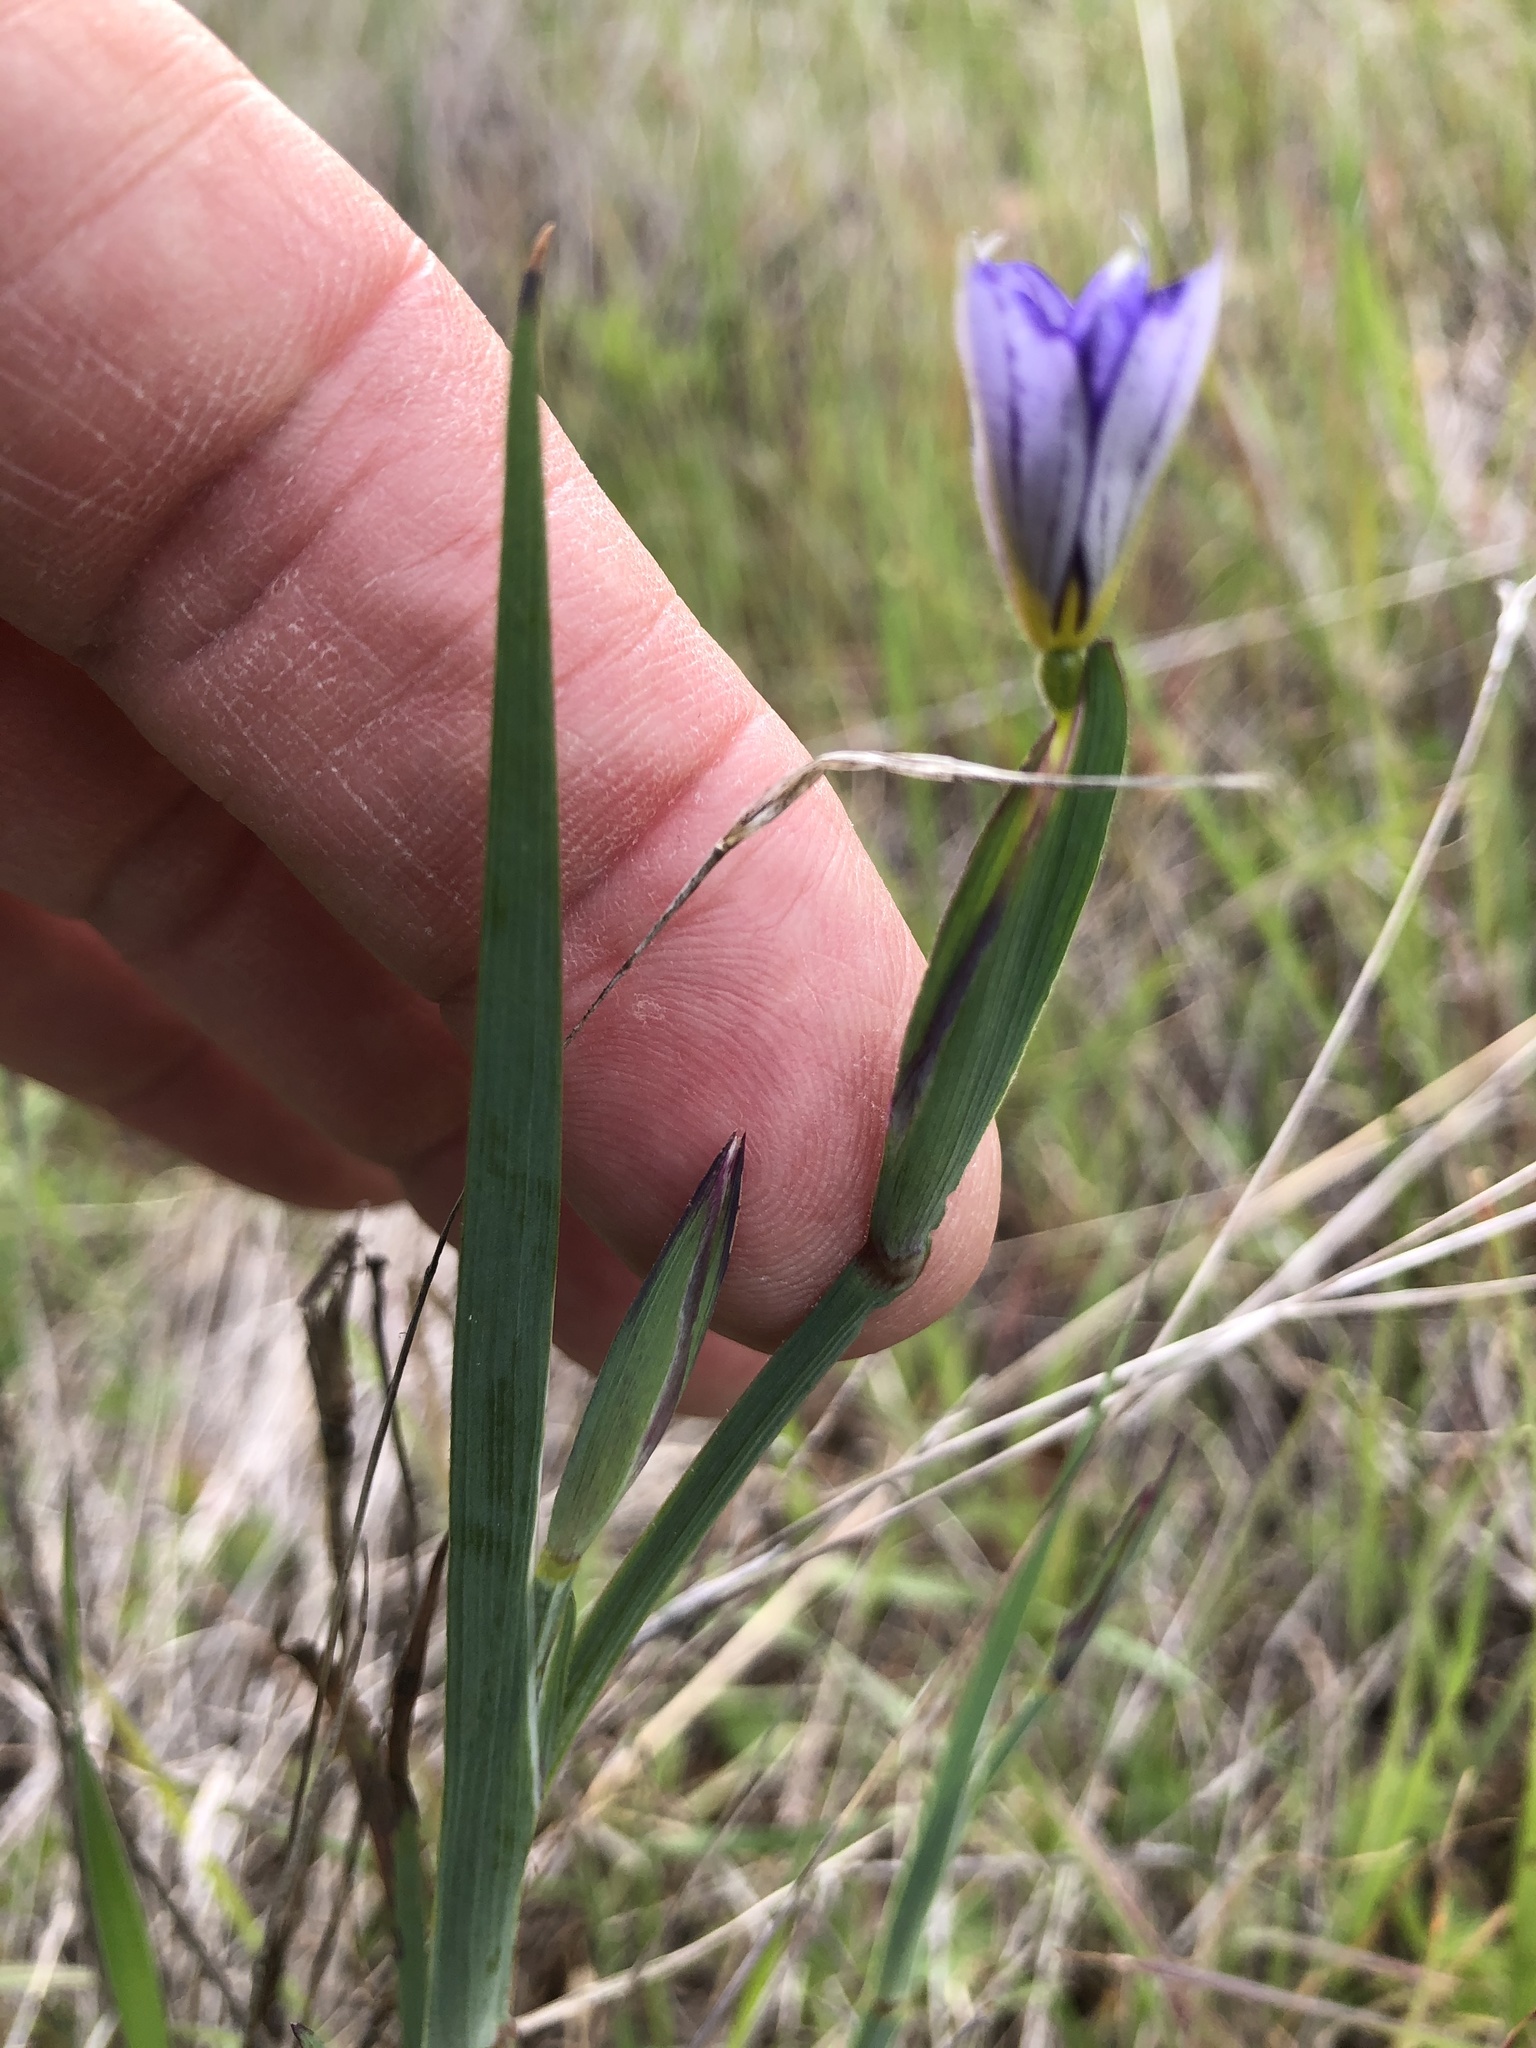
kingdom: Plantae
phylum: Tracheophyta
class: Liliopsida
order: Asparagales
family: Iridaceae
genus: Sisyrinchium
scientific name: Sisyrinchium bellum
